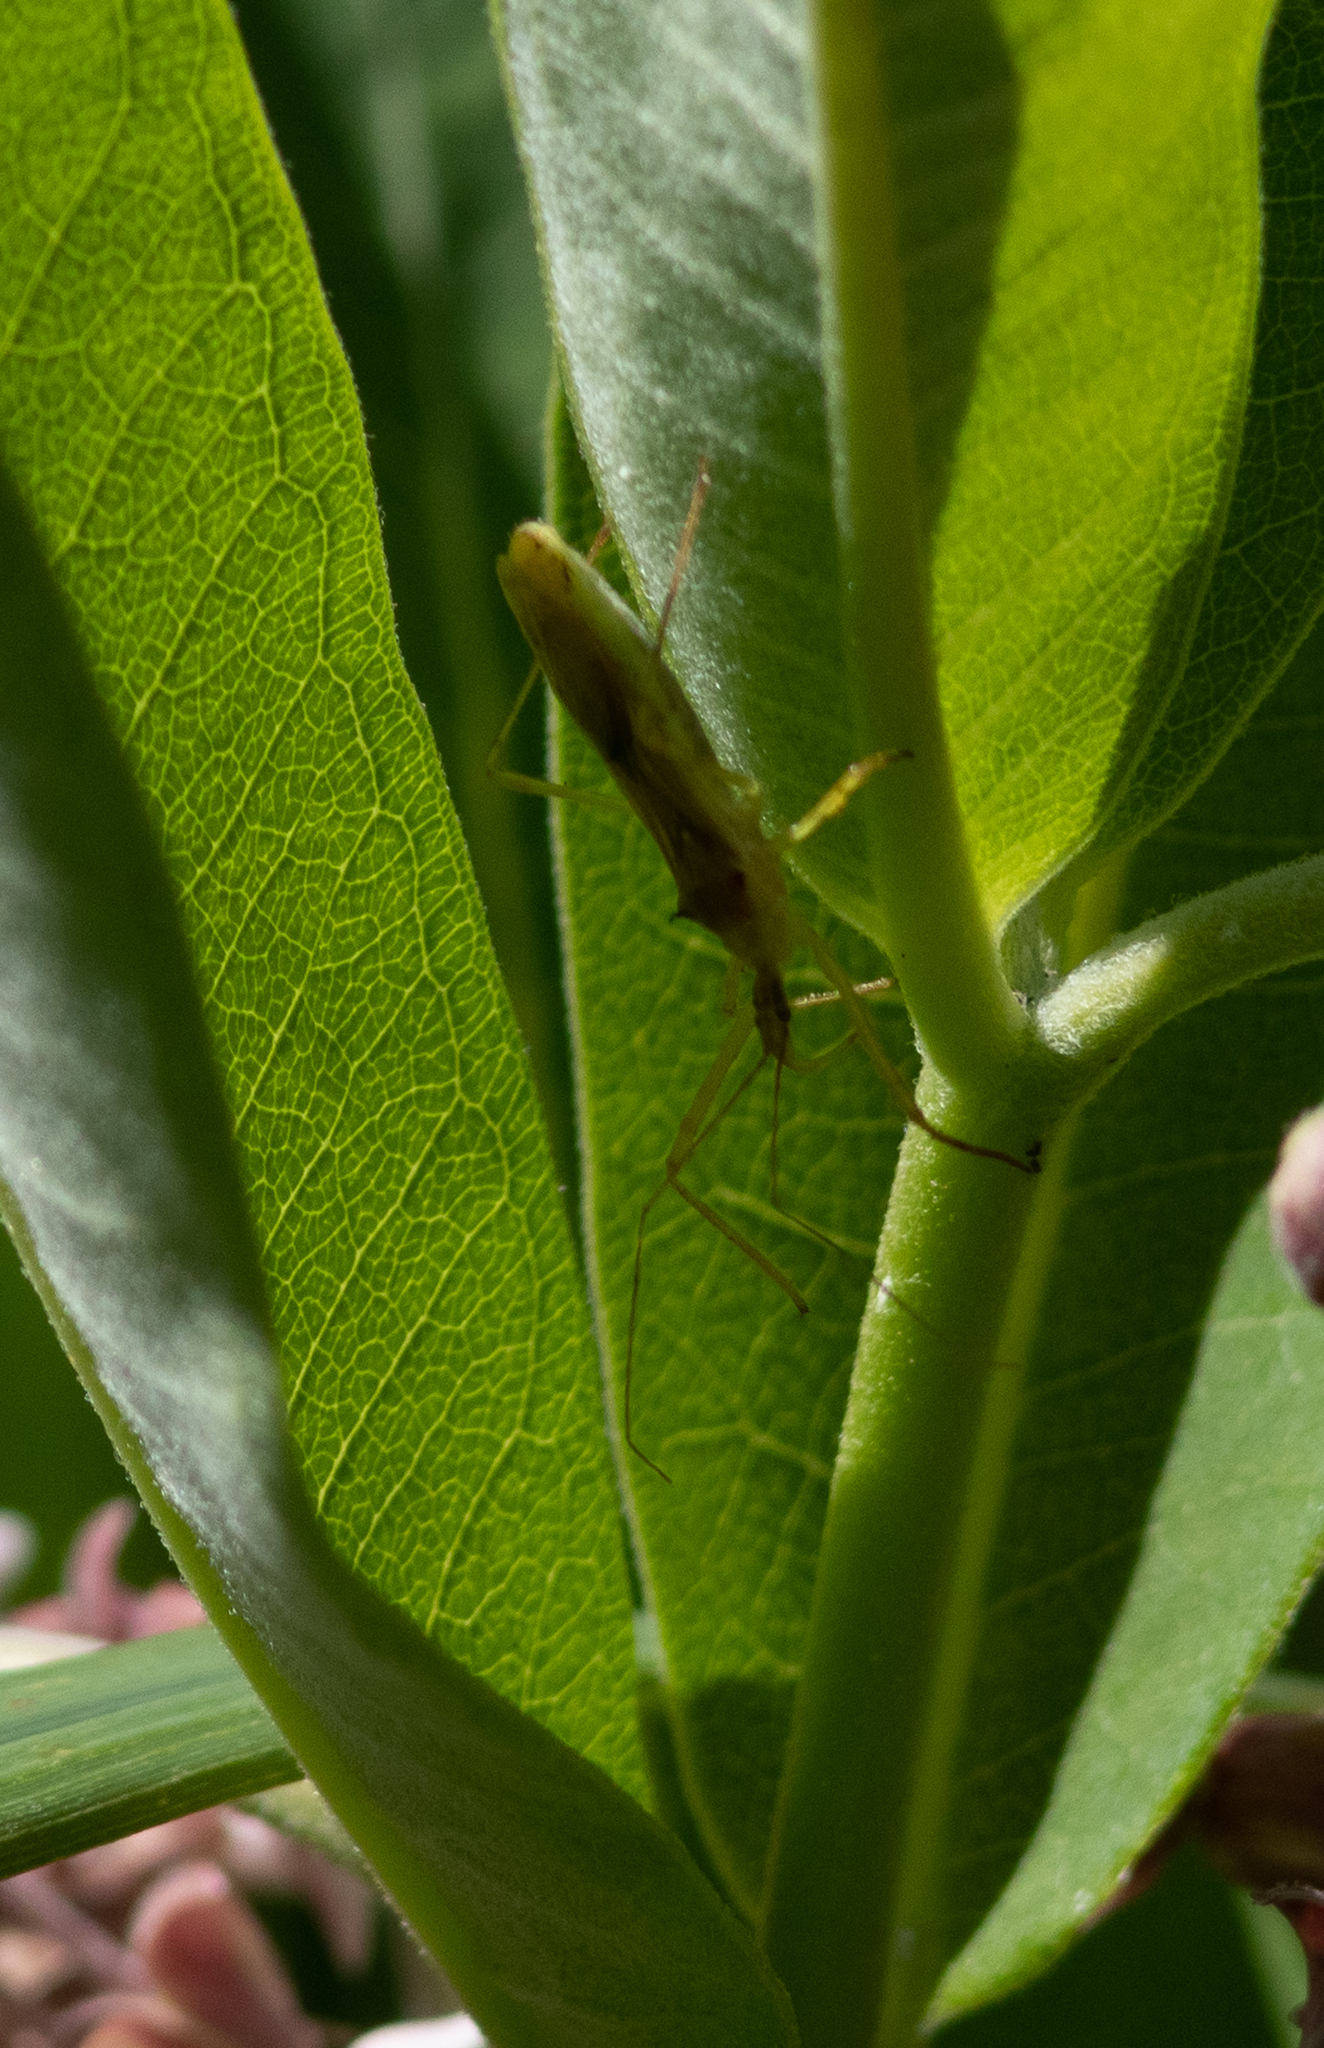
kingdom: Animalia
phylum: Arthropoda
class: Insecta
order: Hemiptera
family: Reduviidae
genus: Zelus
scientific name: Zelus luridus
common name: Pale green assassin bug
